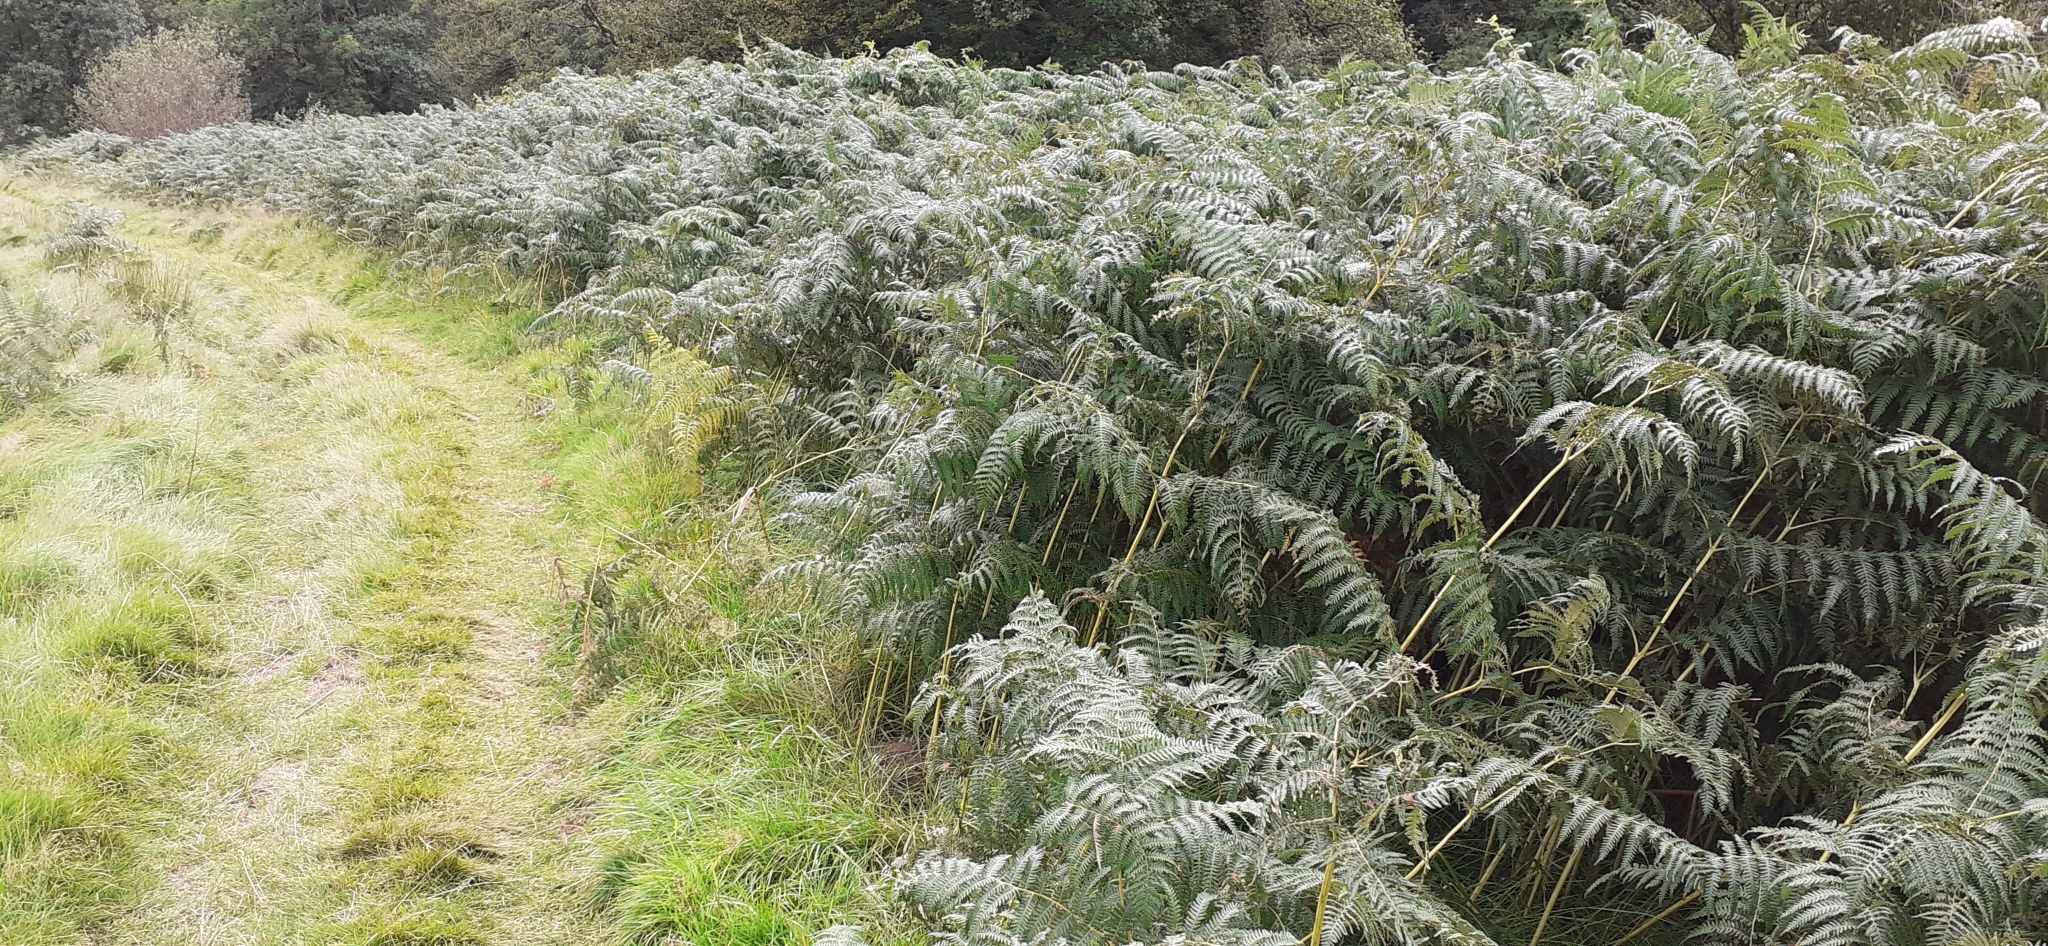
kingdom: Plantae
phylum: Tracheophyta
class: Polypodiopsida
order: Polypodiales
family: Dennstaedtiaceae
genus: Pteridium
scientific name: Pteridium aquilinum
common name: Bracken
